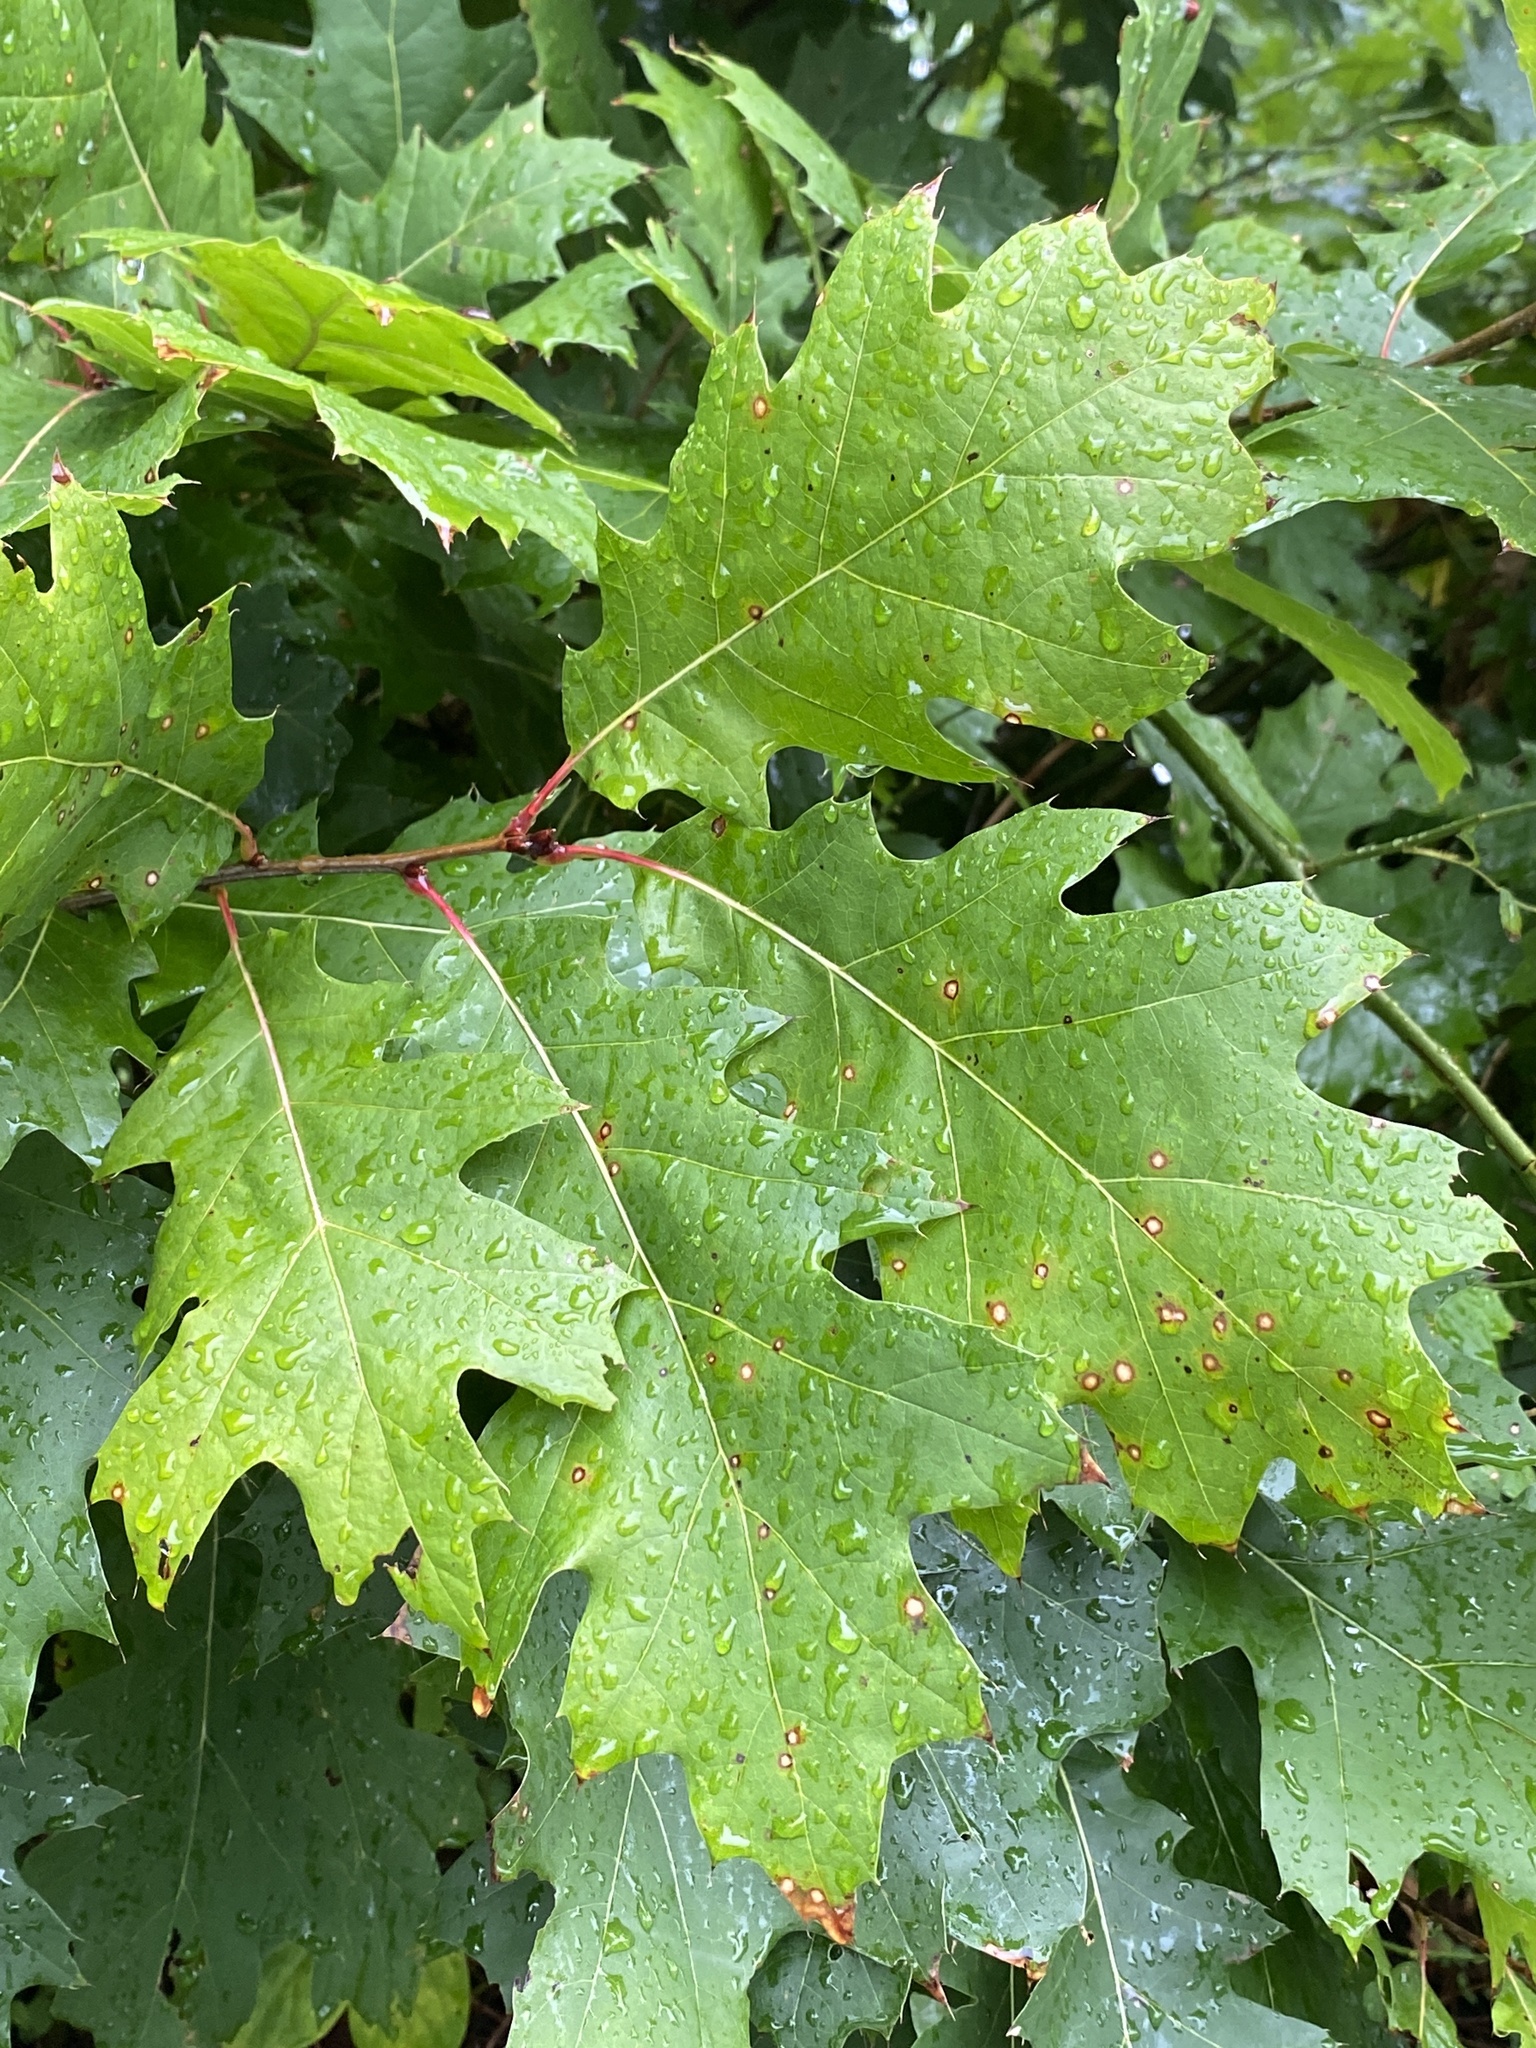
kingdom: Plantae
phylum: Tracheophyta
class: Magnoliopsida
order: Fagales
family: Fagaceae
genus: Quercus
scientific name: Quercus rubra
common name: Red oak
